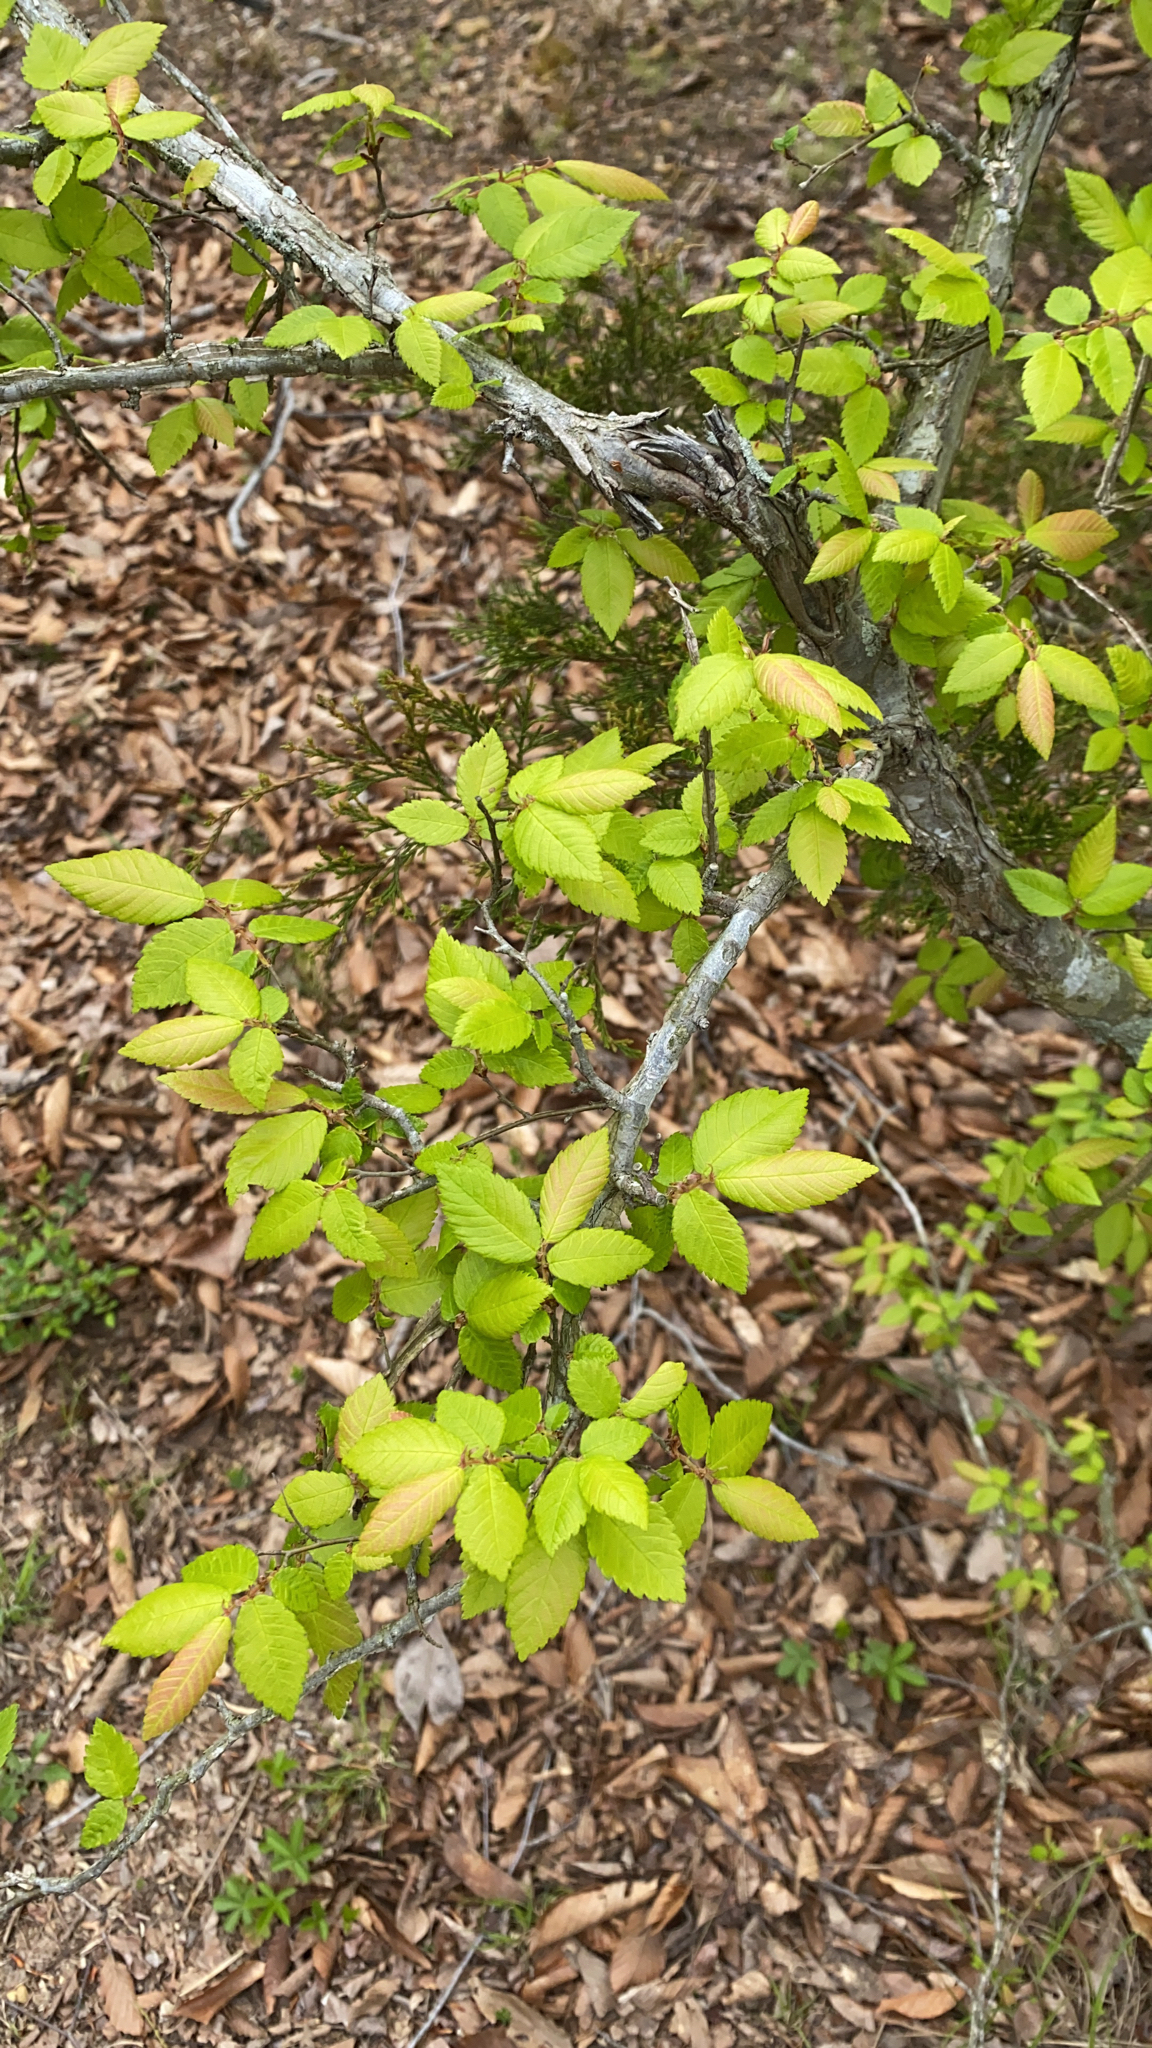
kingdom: Plantae
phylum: Tracheophyta
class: Magnoliopsida
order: Rosales
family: Ulmaceae
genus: Ulmus
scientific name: Ulmus alata
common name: Winged elm
